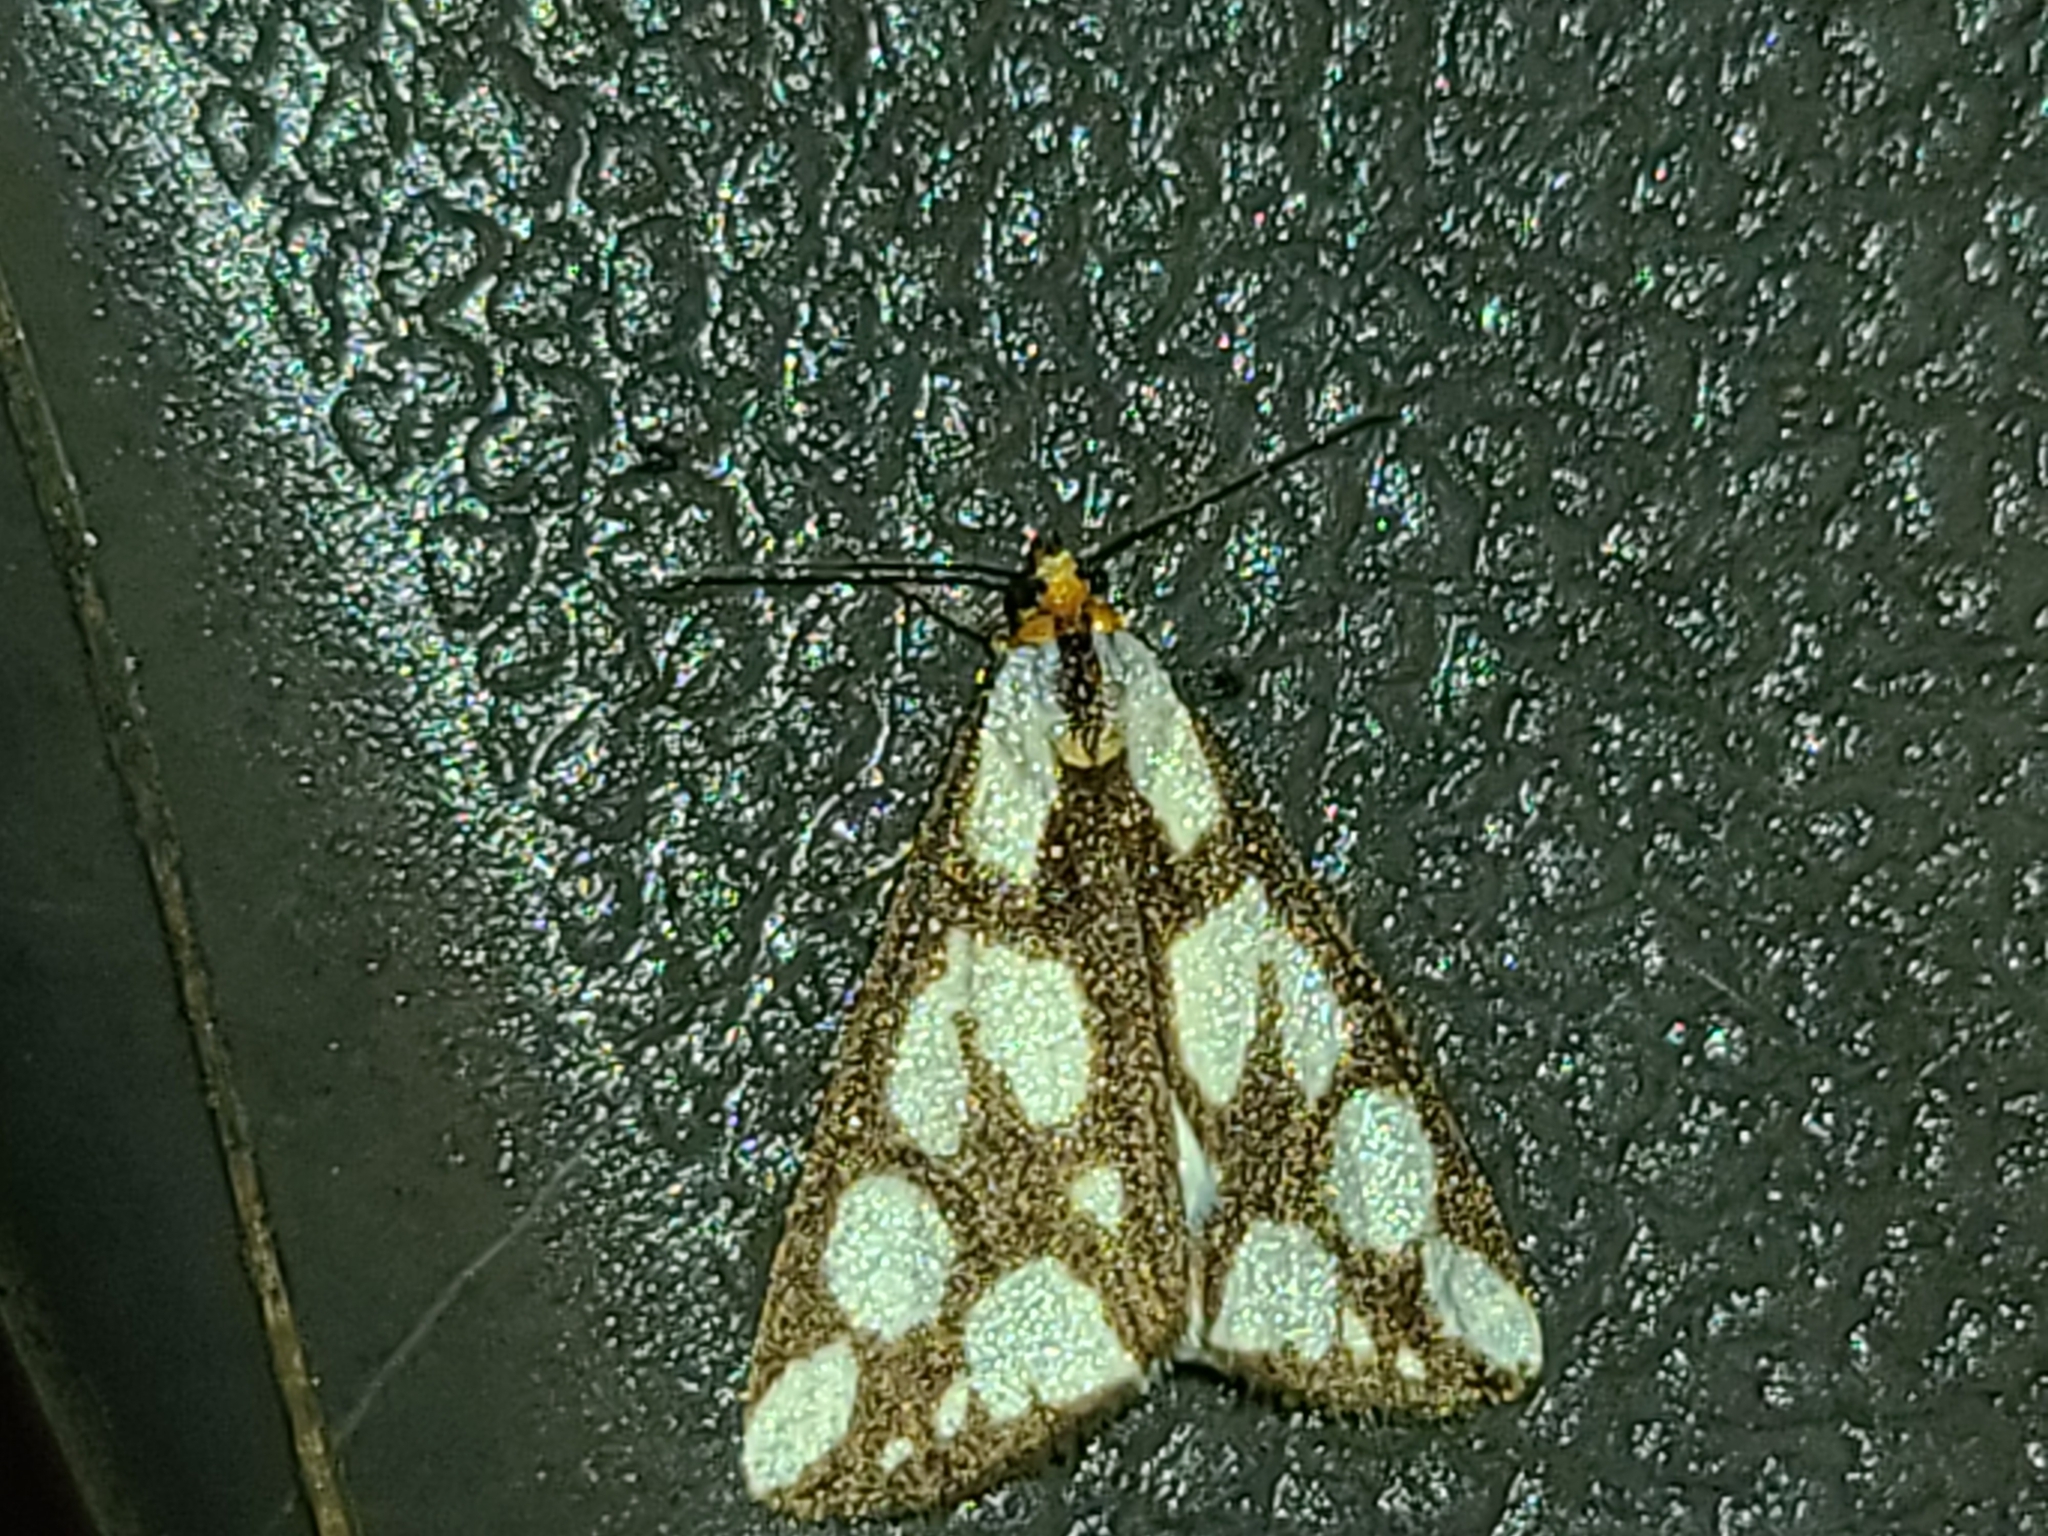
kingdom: Animalia
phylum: Arthropoda
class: Insecta
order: Lepidoptera
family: Erebidae
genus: Haploa
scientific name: Haploa confusa
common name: Confused haploa moth
